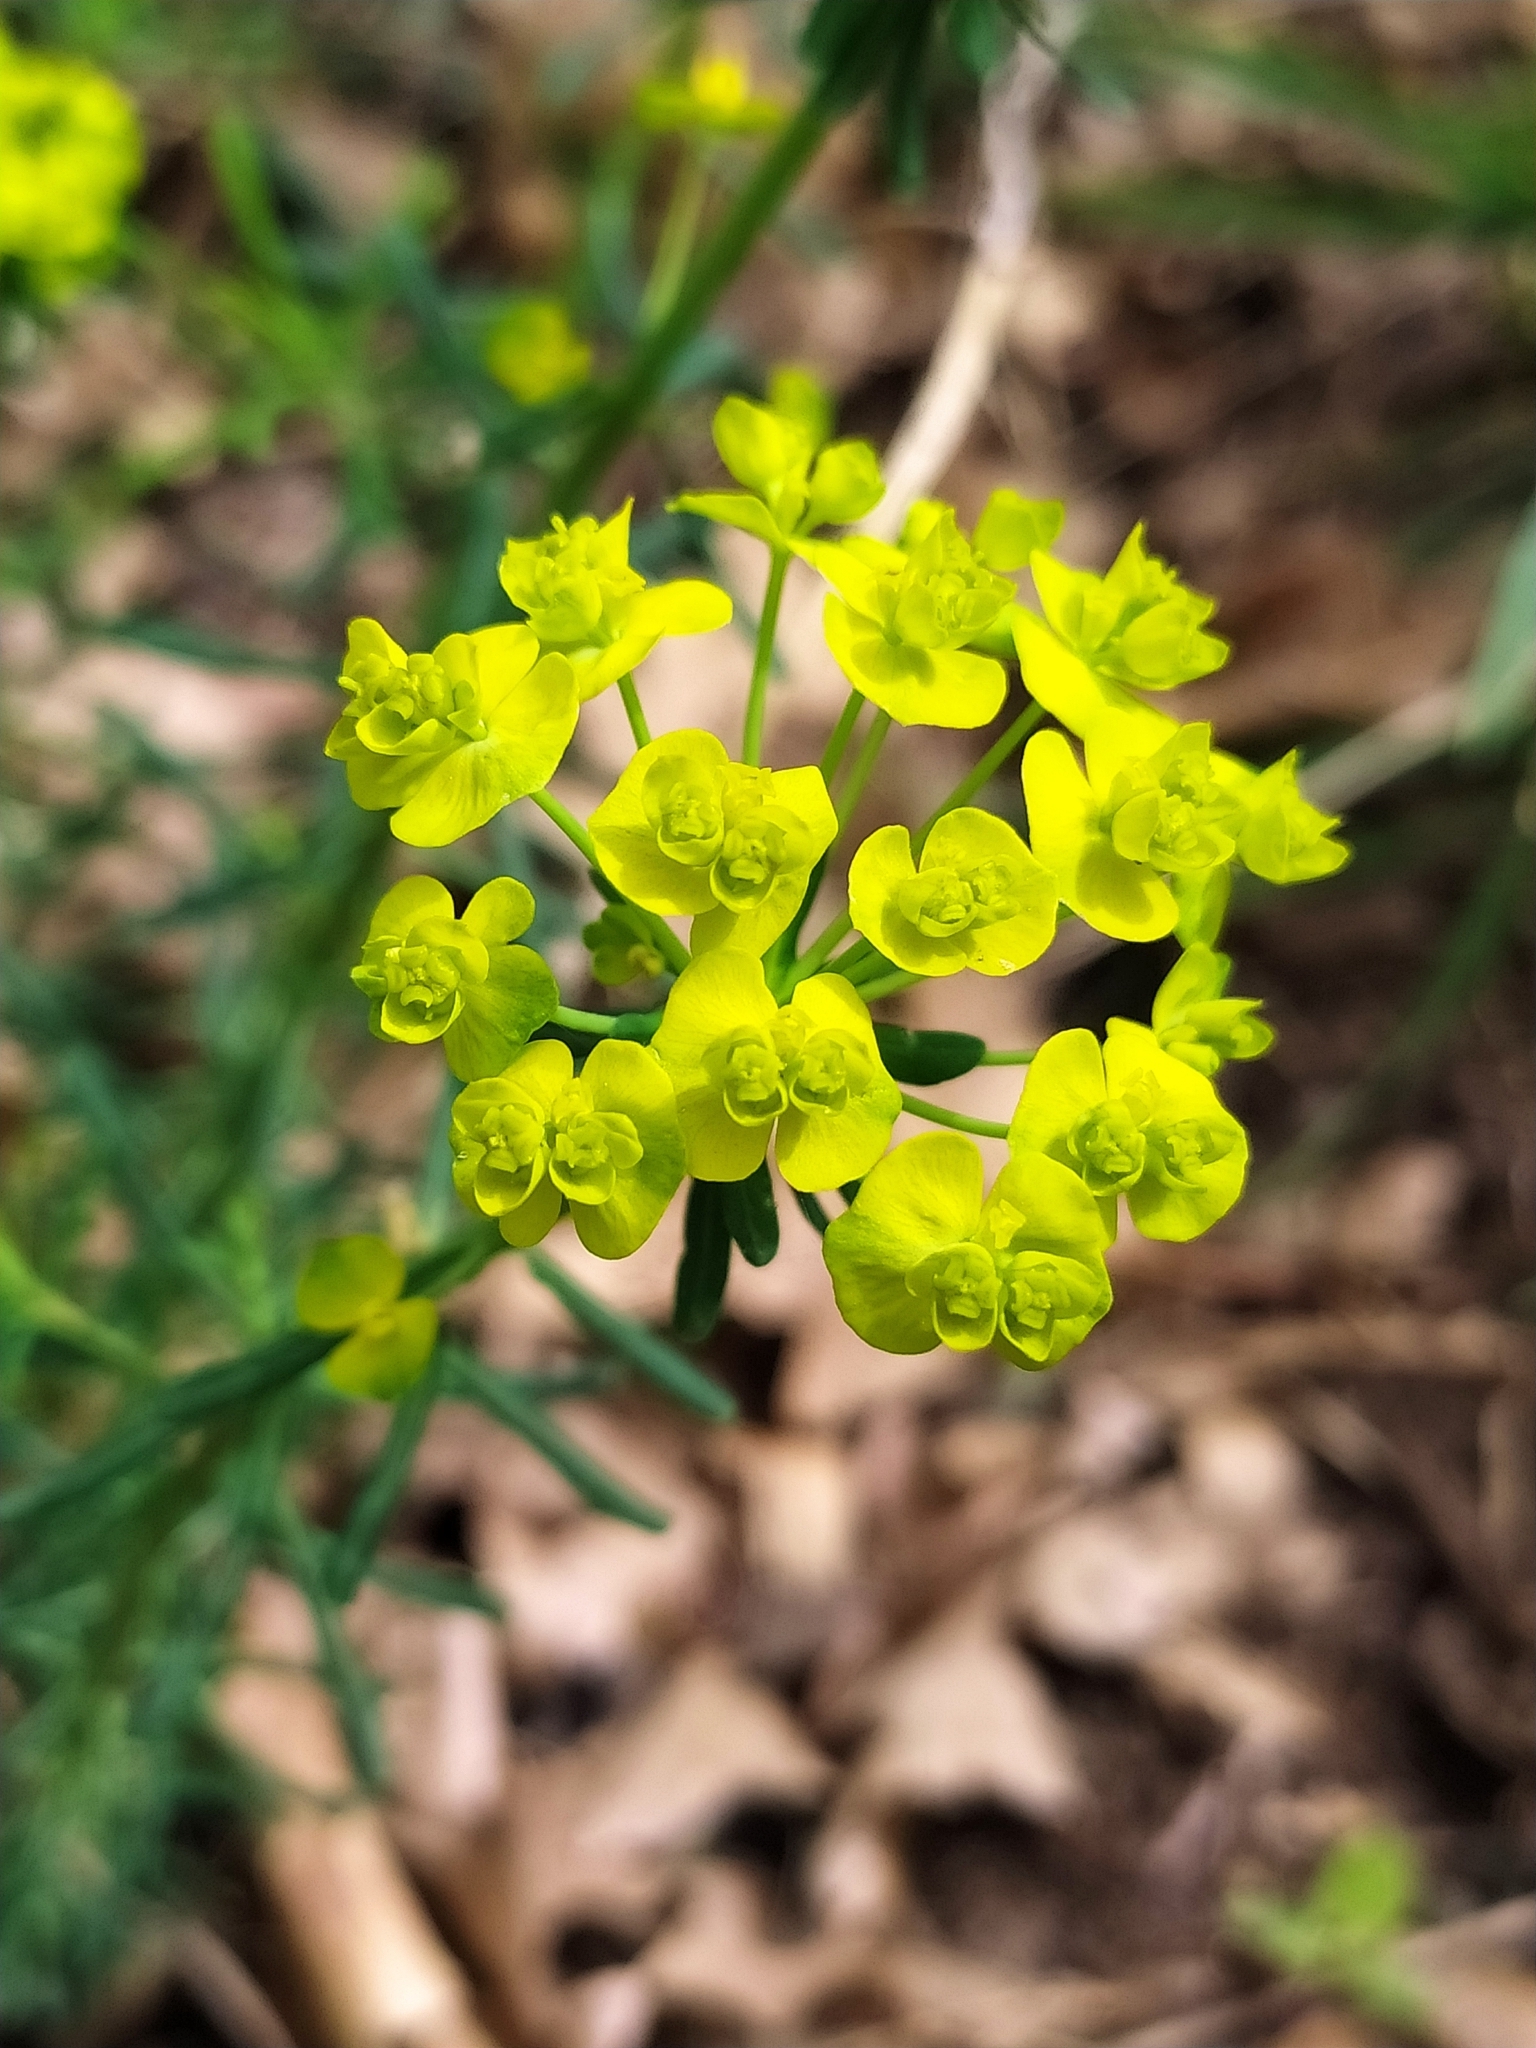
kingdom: Plantae
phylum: Tracheophyta
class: Magnoliopsida
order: Malpighiales
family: Euphorbiaceae
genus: Euphorbia
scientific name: Euphorbia cyparissias
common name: Cypress spurge
